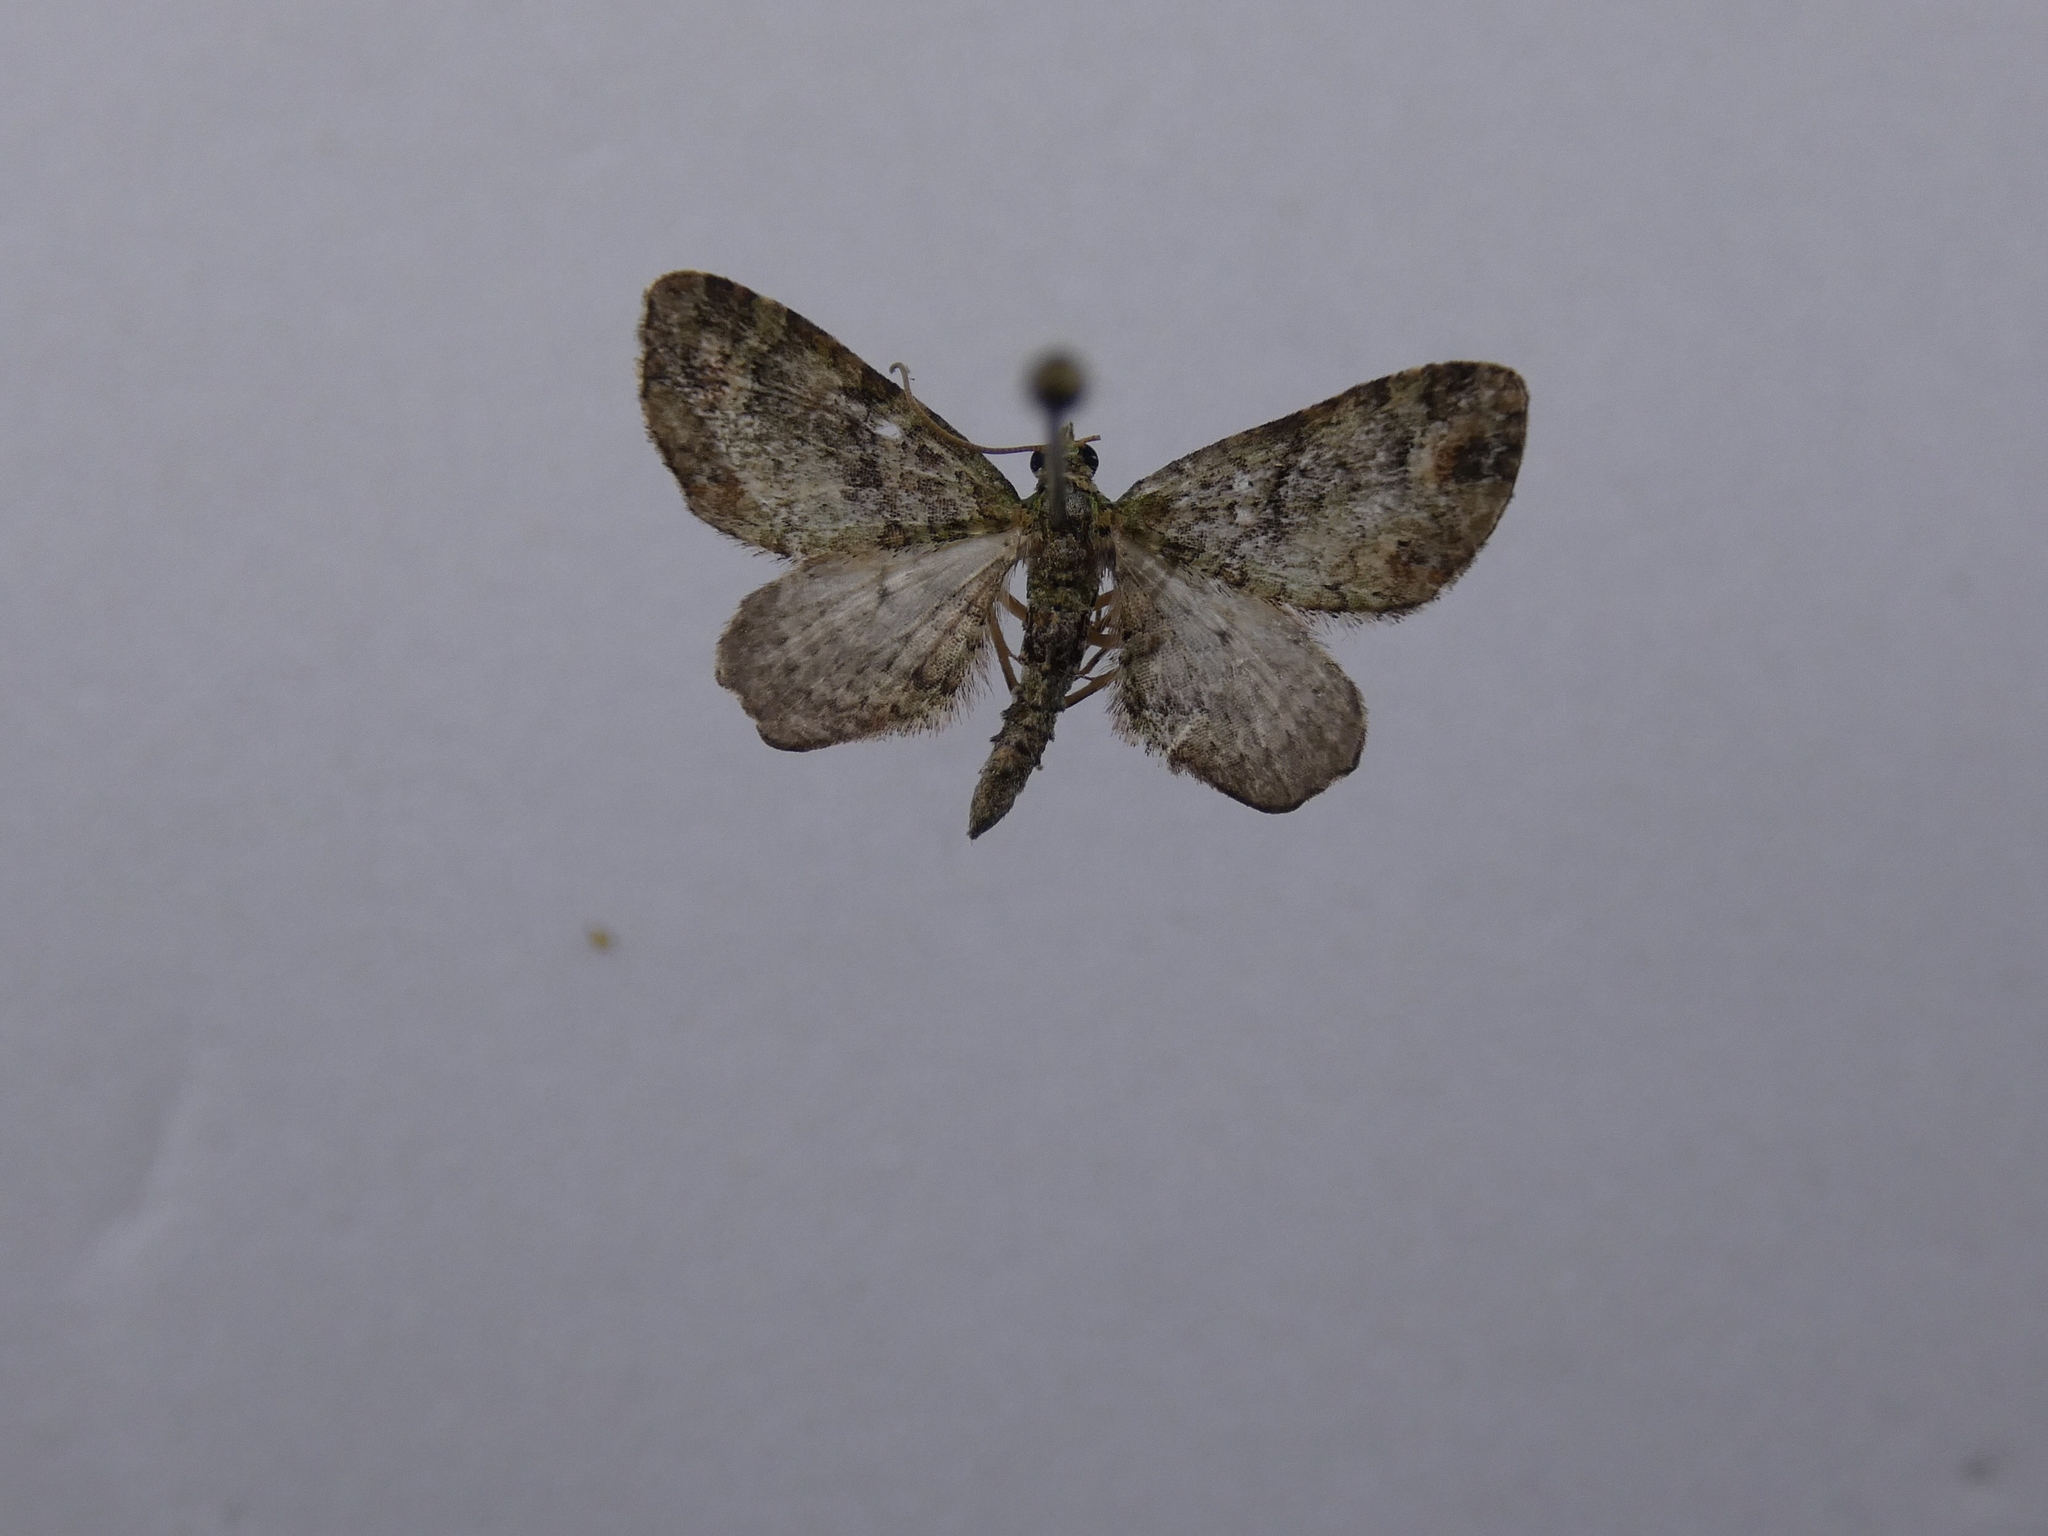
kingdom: Animalia
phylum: Arthropoda
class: Insecta
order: Lepidoptera
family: Geometridae
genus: Idaea
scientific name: Idaea mutanda
